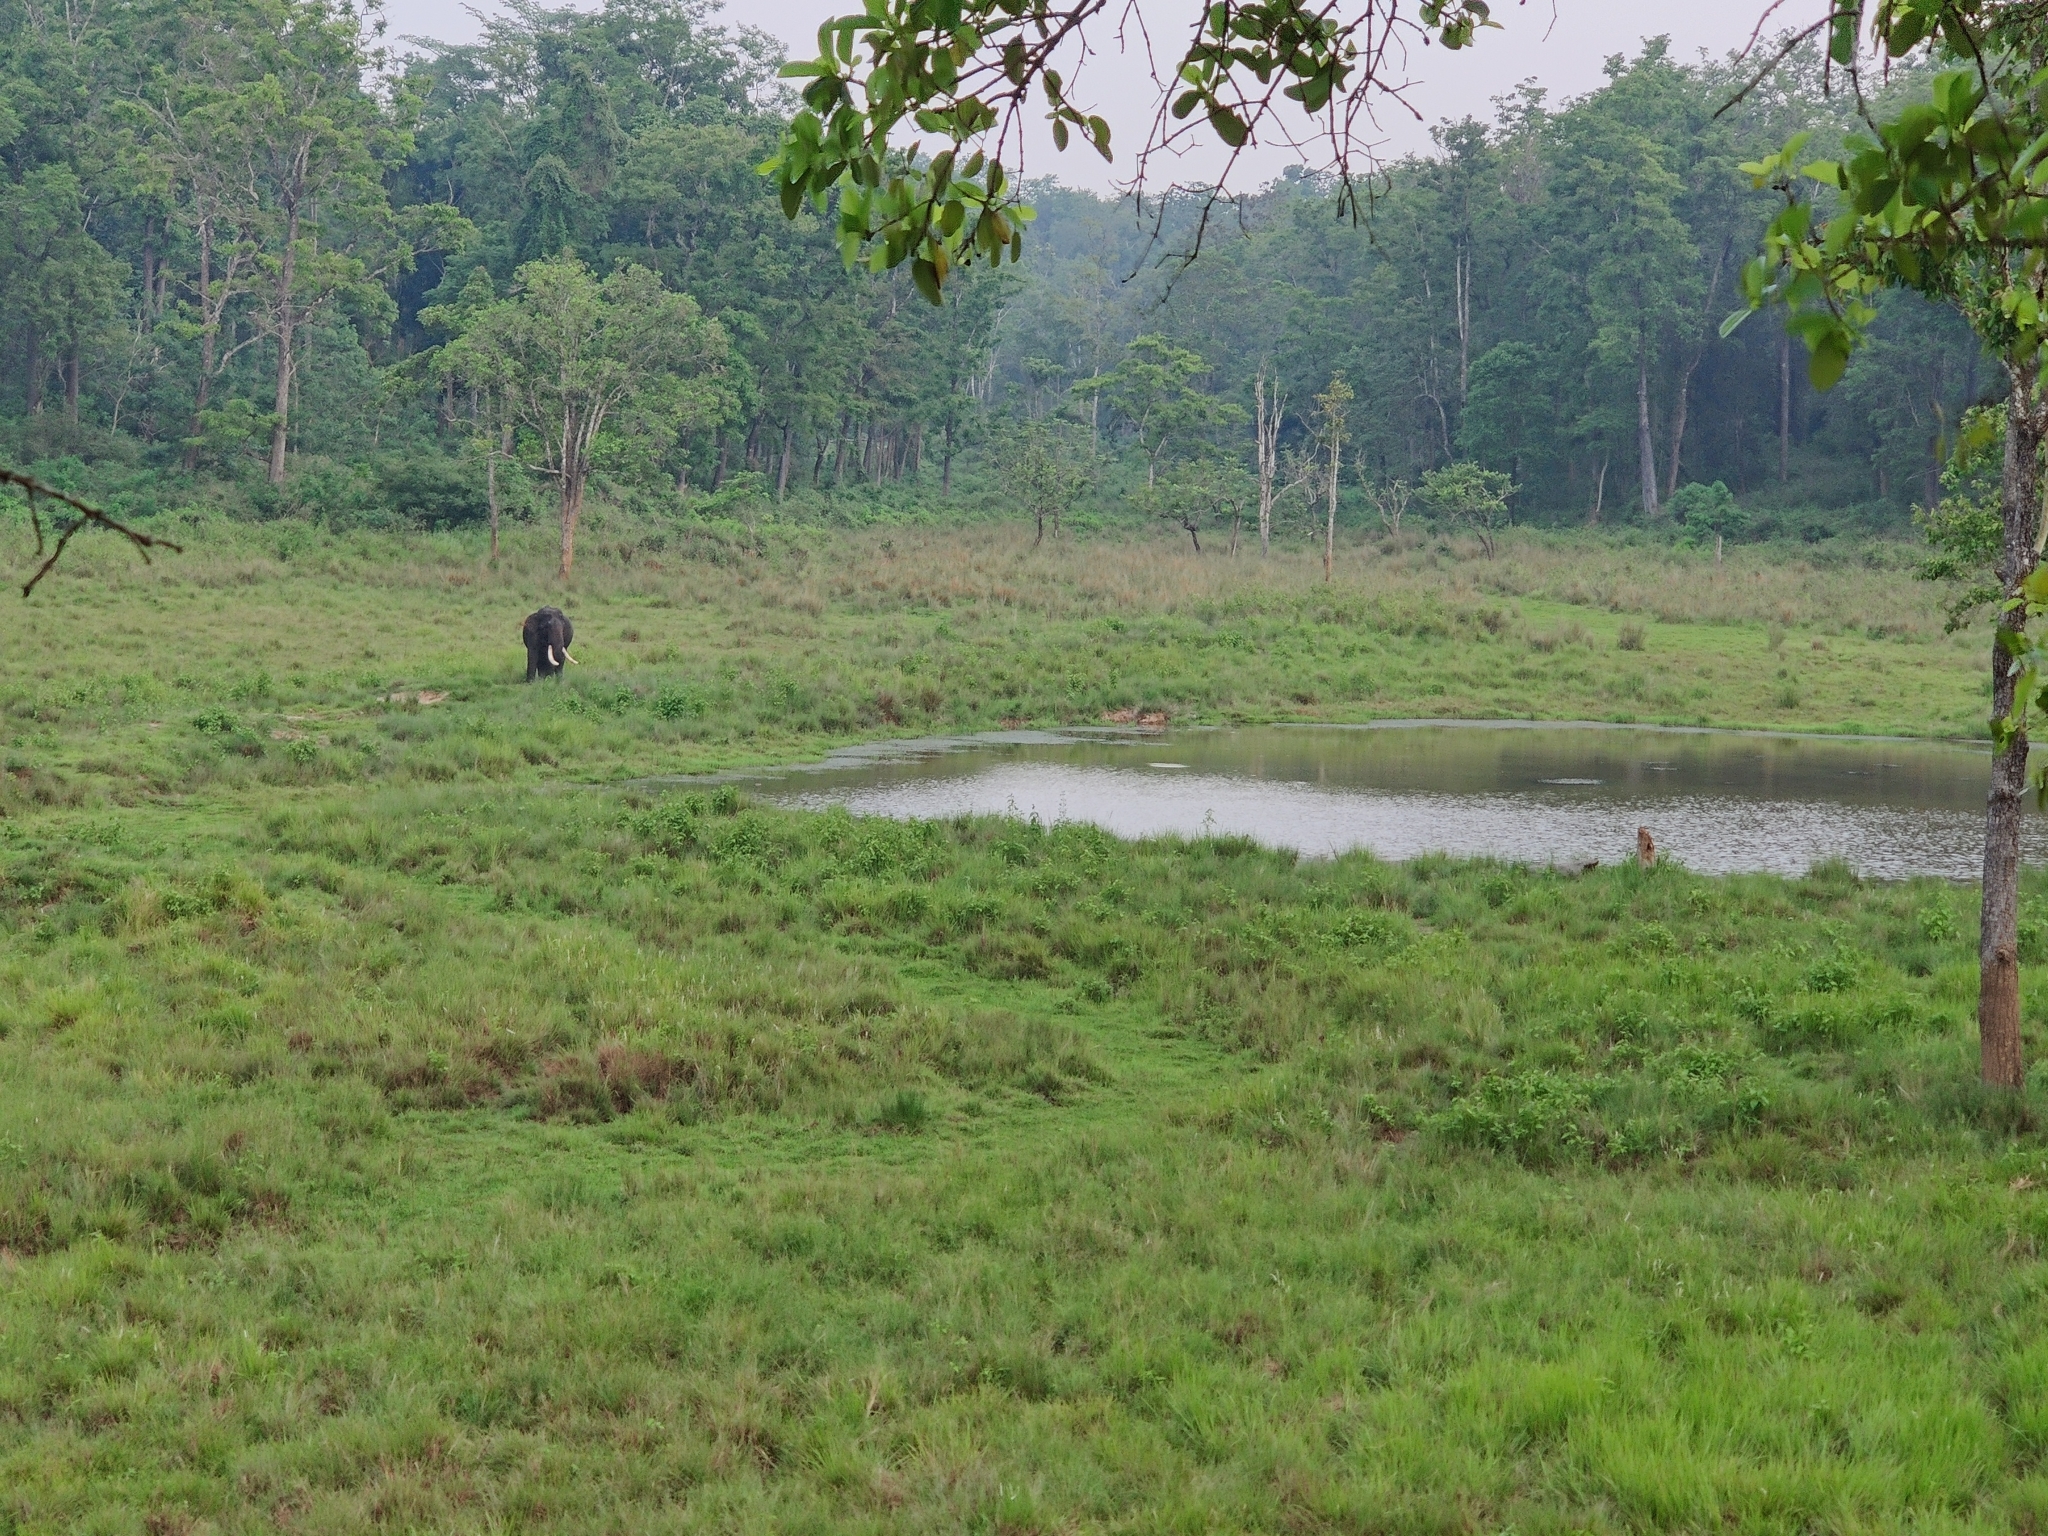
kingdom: Animalia
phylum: Chordata
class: Mammalia
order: Proboscidea
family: Elephantidae
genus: Elephas
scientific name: Elephas maximus
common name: Asian elephant
